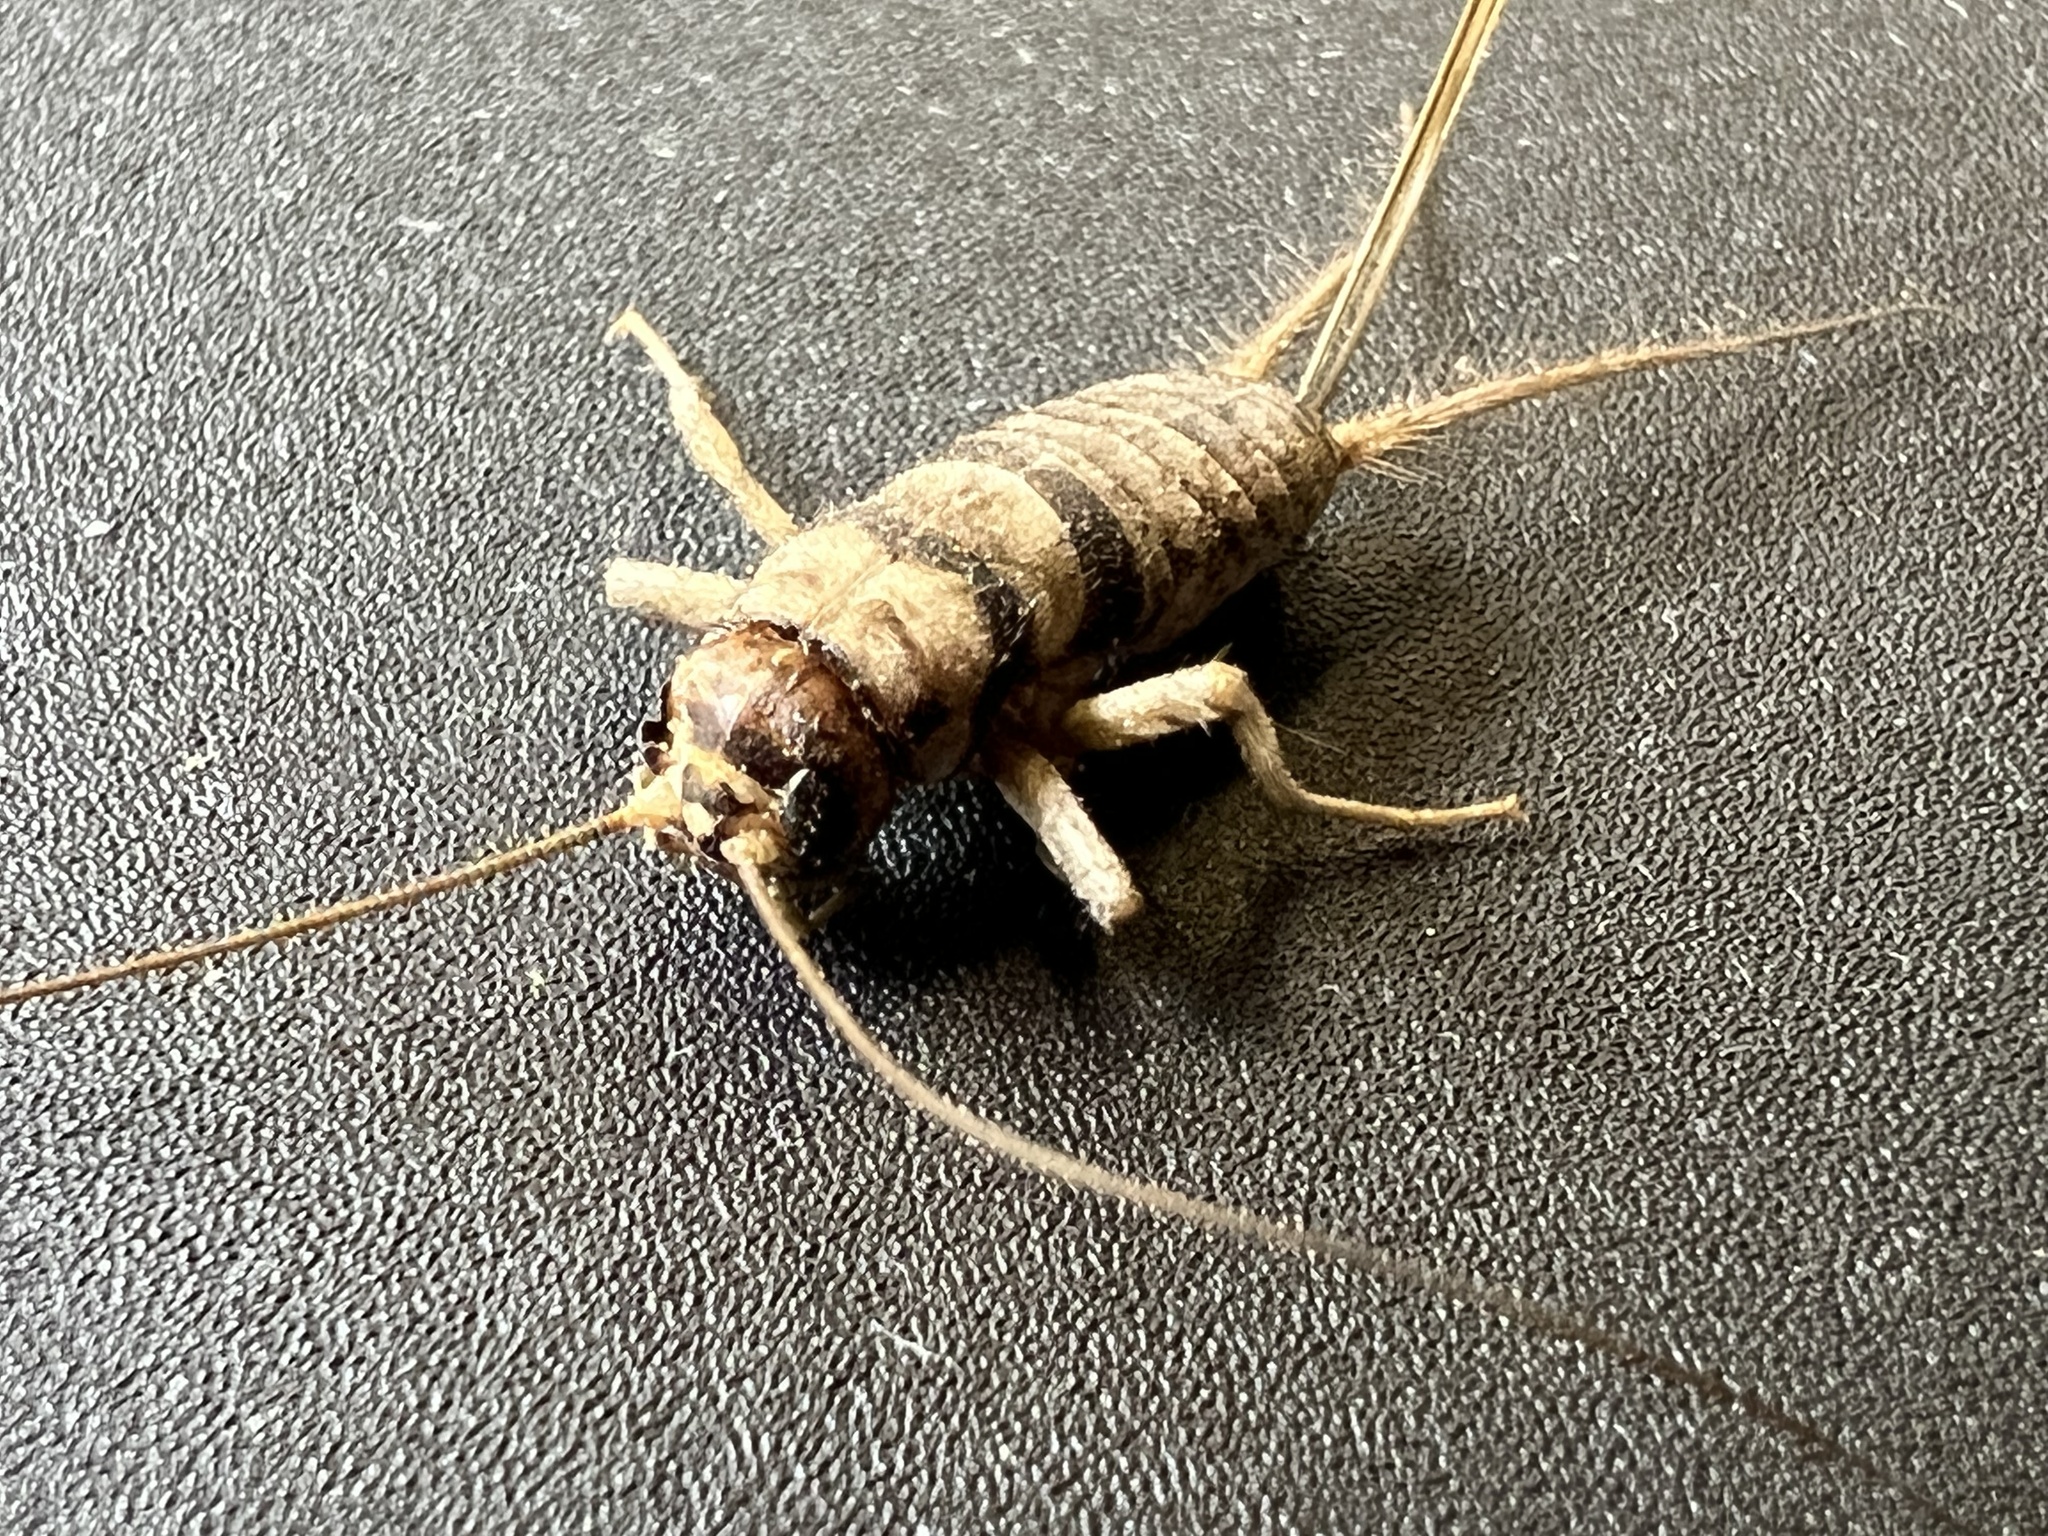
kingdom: Animalia
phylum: Arthropoda
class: Insecta
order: Orthoptera
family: Gryllidae
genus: Gryllodes
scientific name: Gryllodes sigillatus
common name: Tropical house cricket
